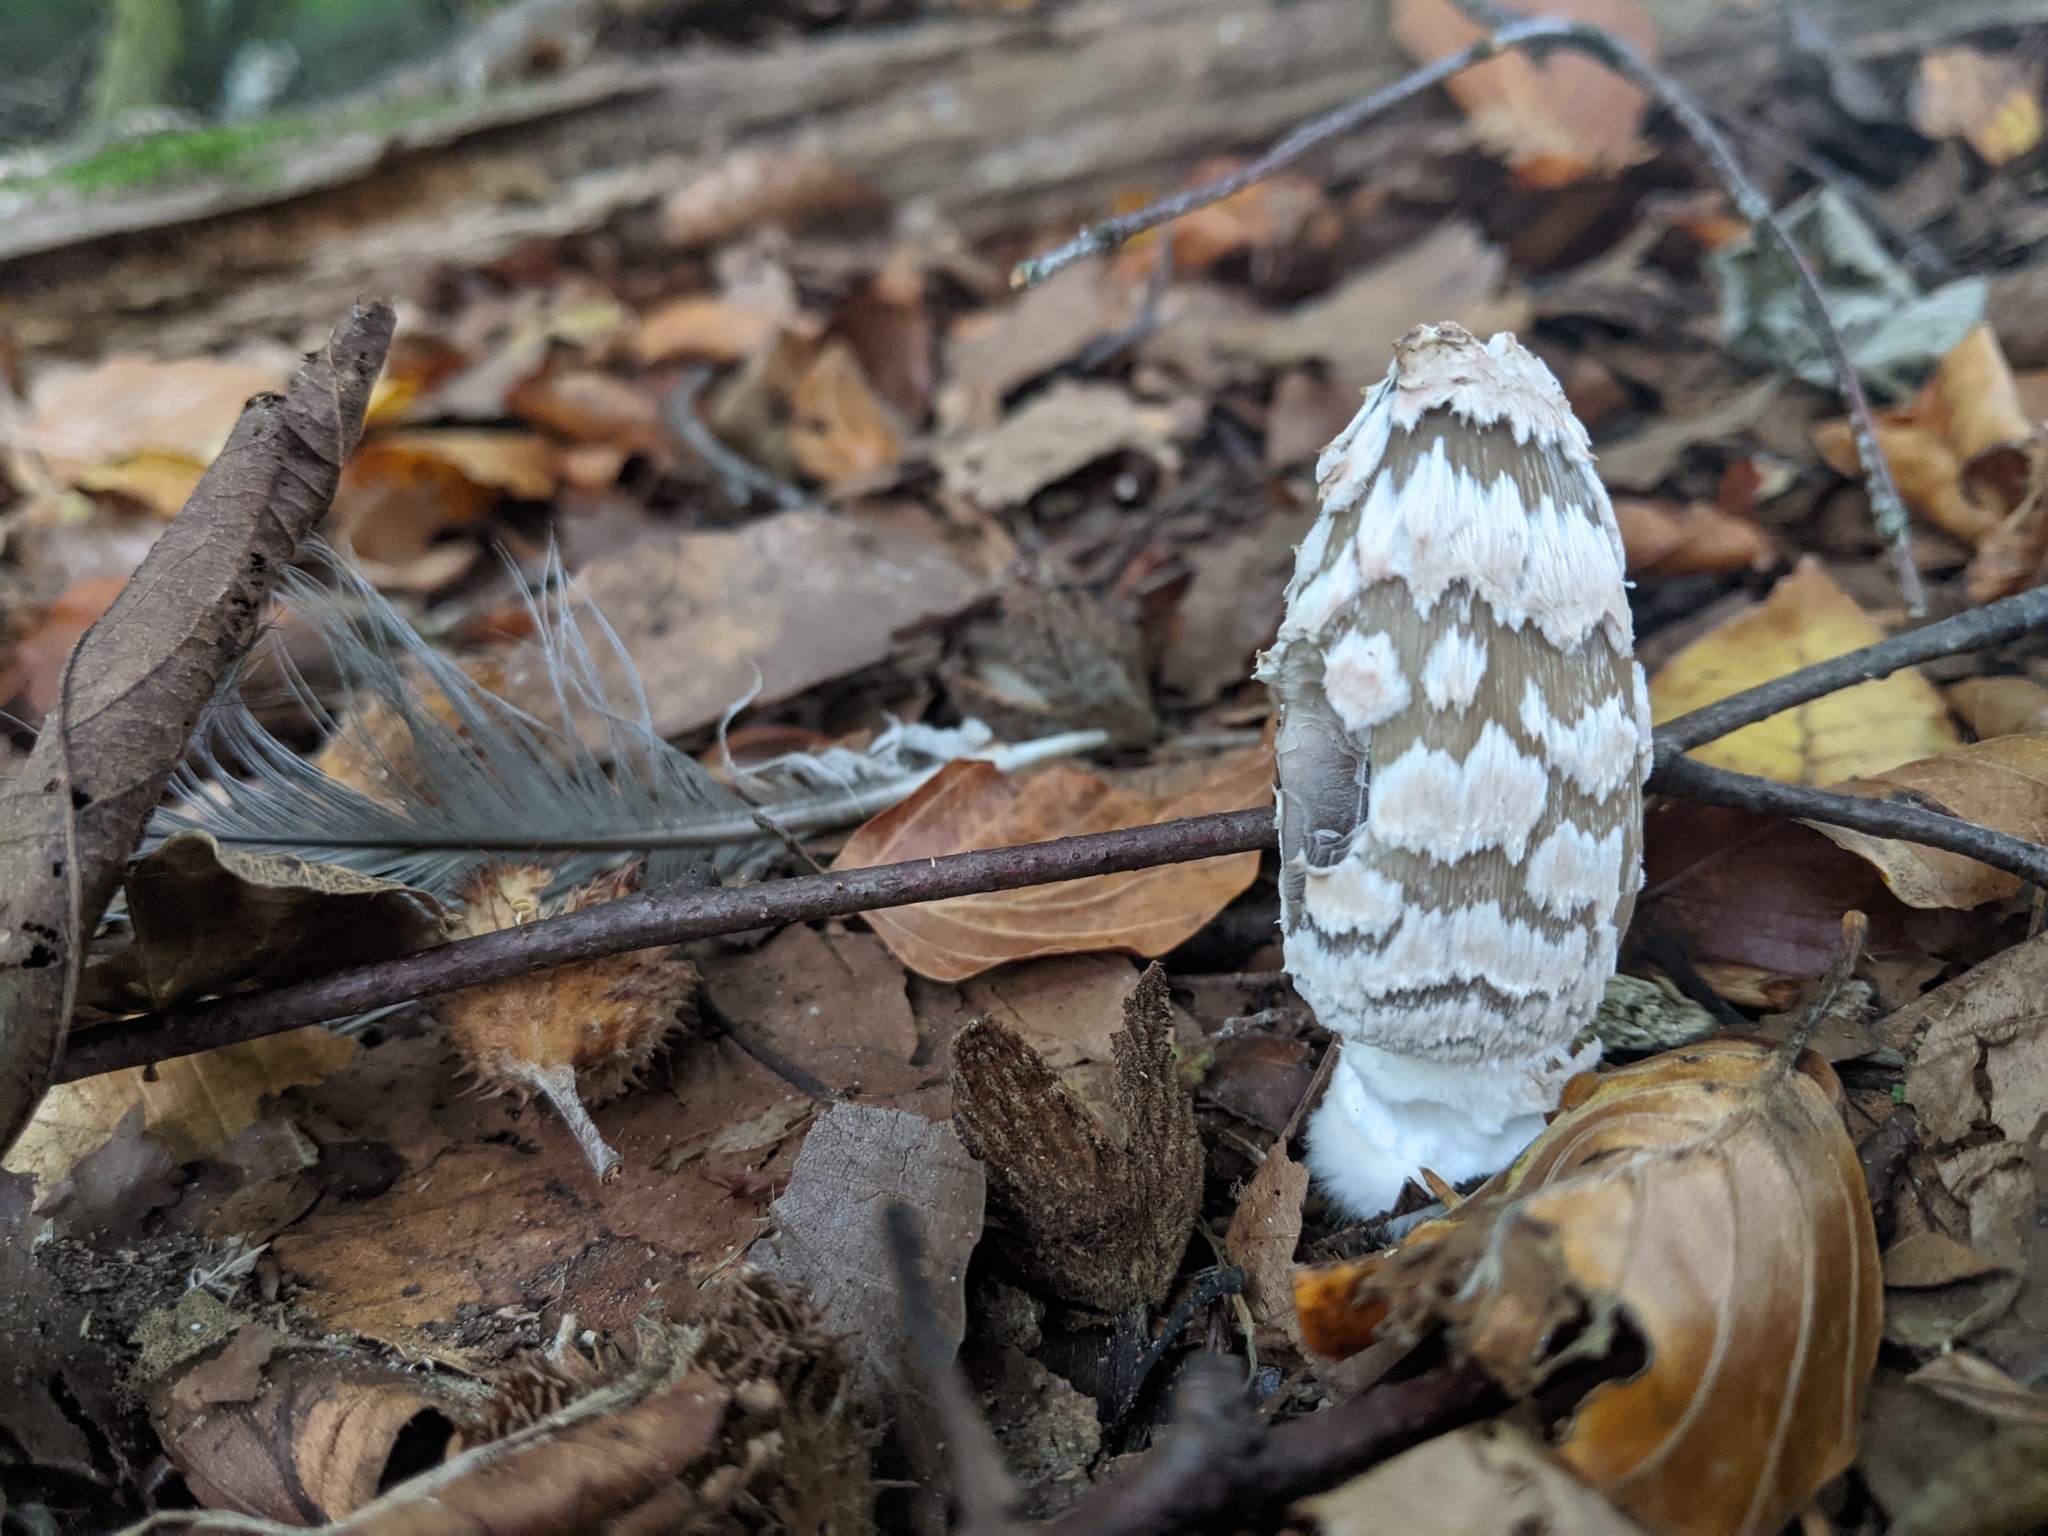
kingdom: Fungi
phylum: Basidiomycota
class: Agaricomycetes
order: Agaricales
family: Psathyrellaceae
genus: Coprinopsis
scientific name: Coprinopsis picacea
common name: Magpie inkcap
